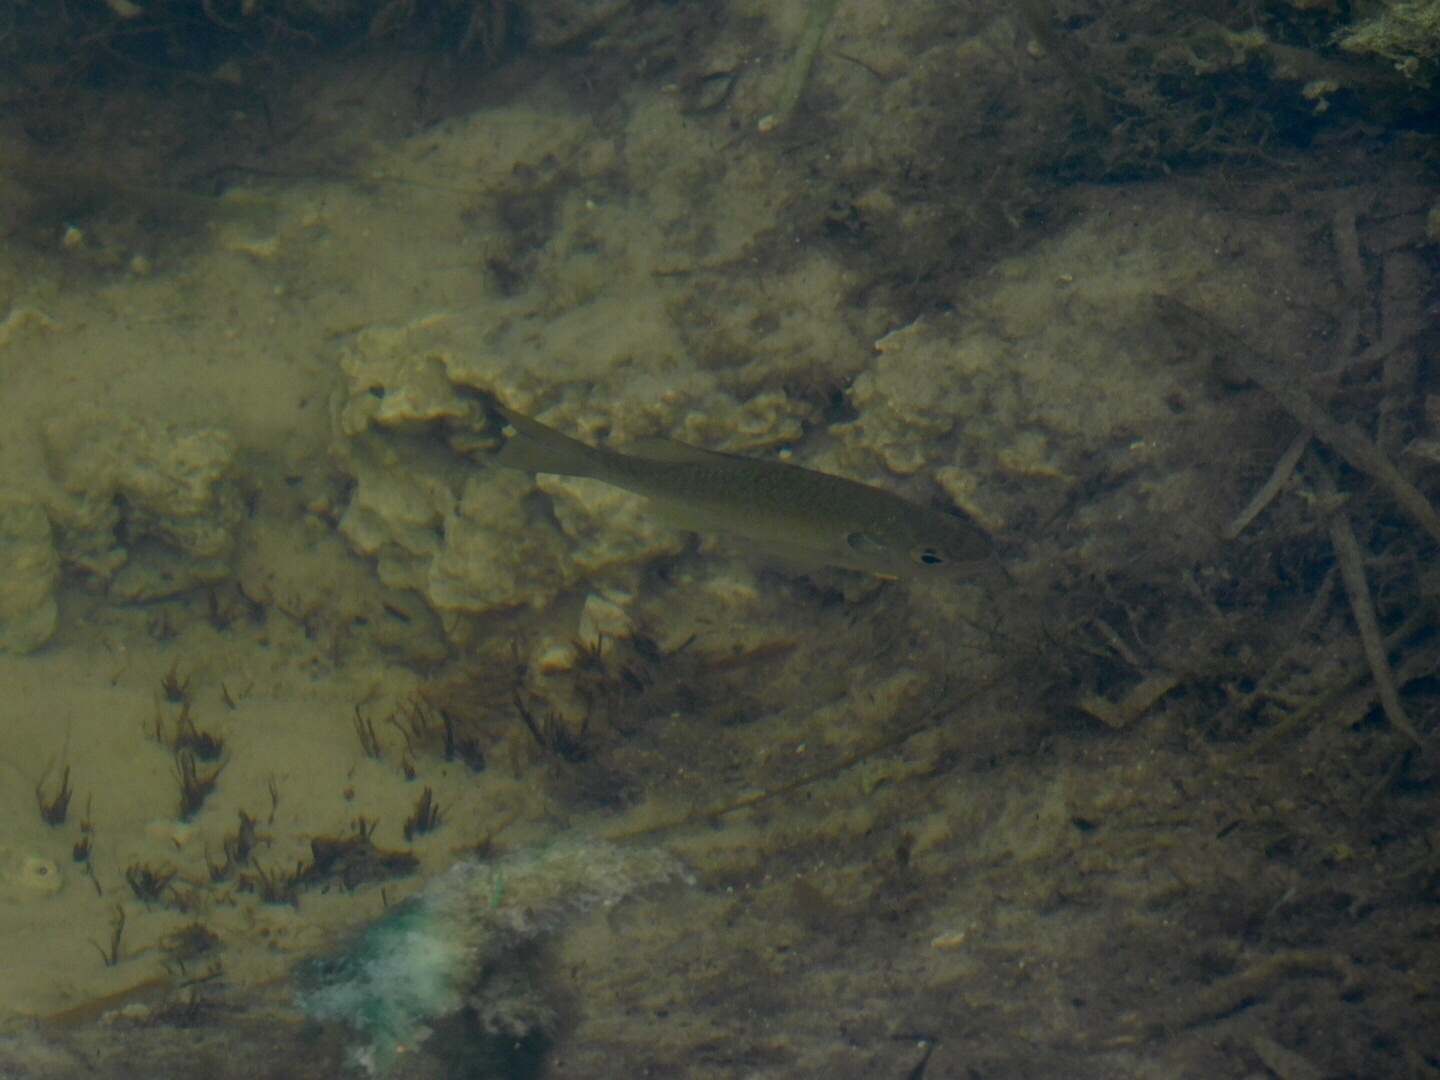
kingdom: Animalia
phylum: Chordata
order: Perciformes
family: Centrarchidae
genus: Lepomis
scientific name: Lepomis microlophus
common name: Redear sunfish
